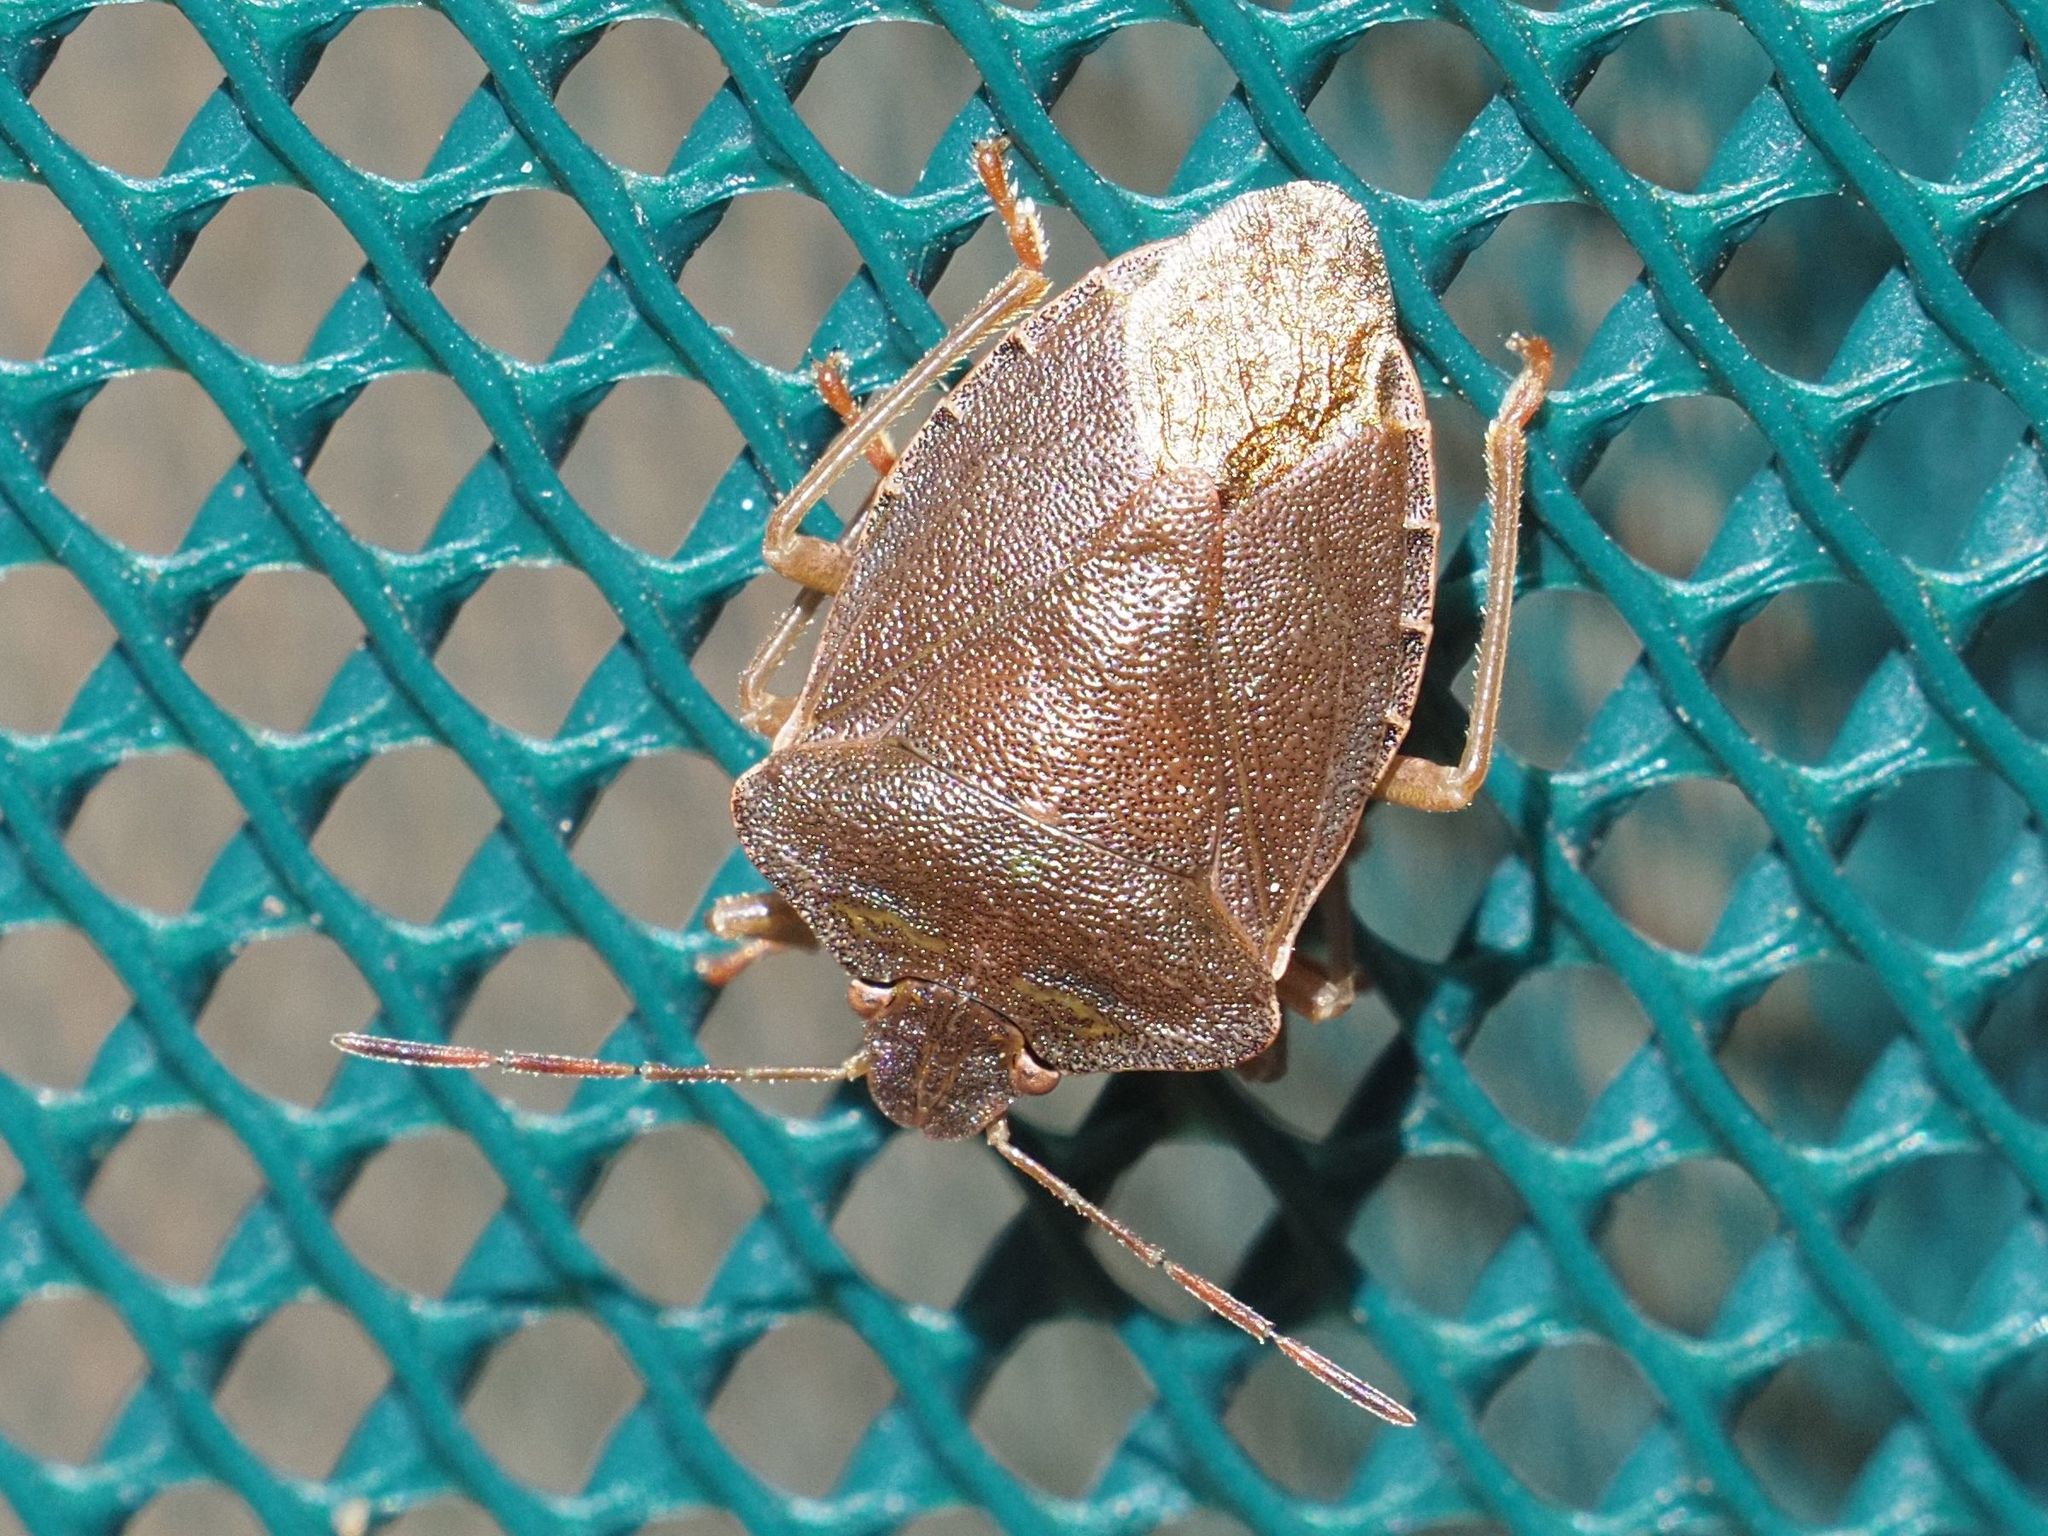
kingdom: Animalia
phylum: Arthropoda
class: Insecta
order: Hemiptera
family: Pentatomidae
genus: Palomena
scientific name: Palomena prasina
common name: Green shieldbug
